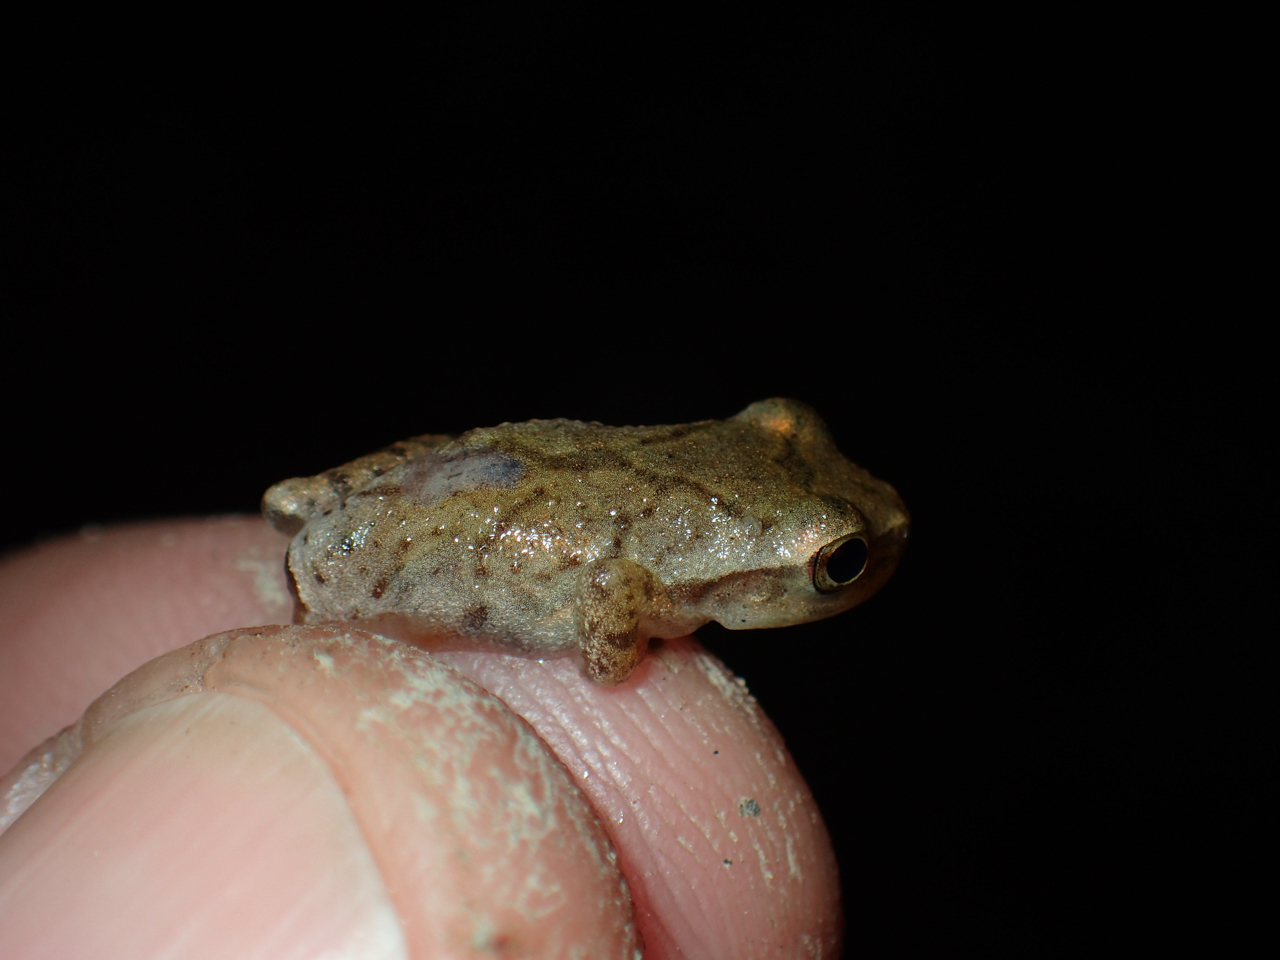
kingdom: Animalia
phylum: Chordata
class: Amphibia
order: Anura
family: Hylidae
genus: Pseudacris
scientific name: Pseudacris crucifer
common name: Spring peeper
